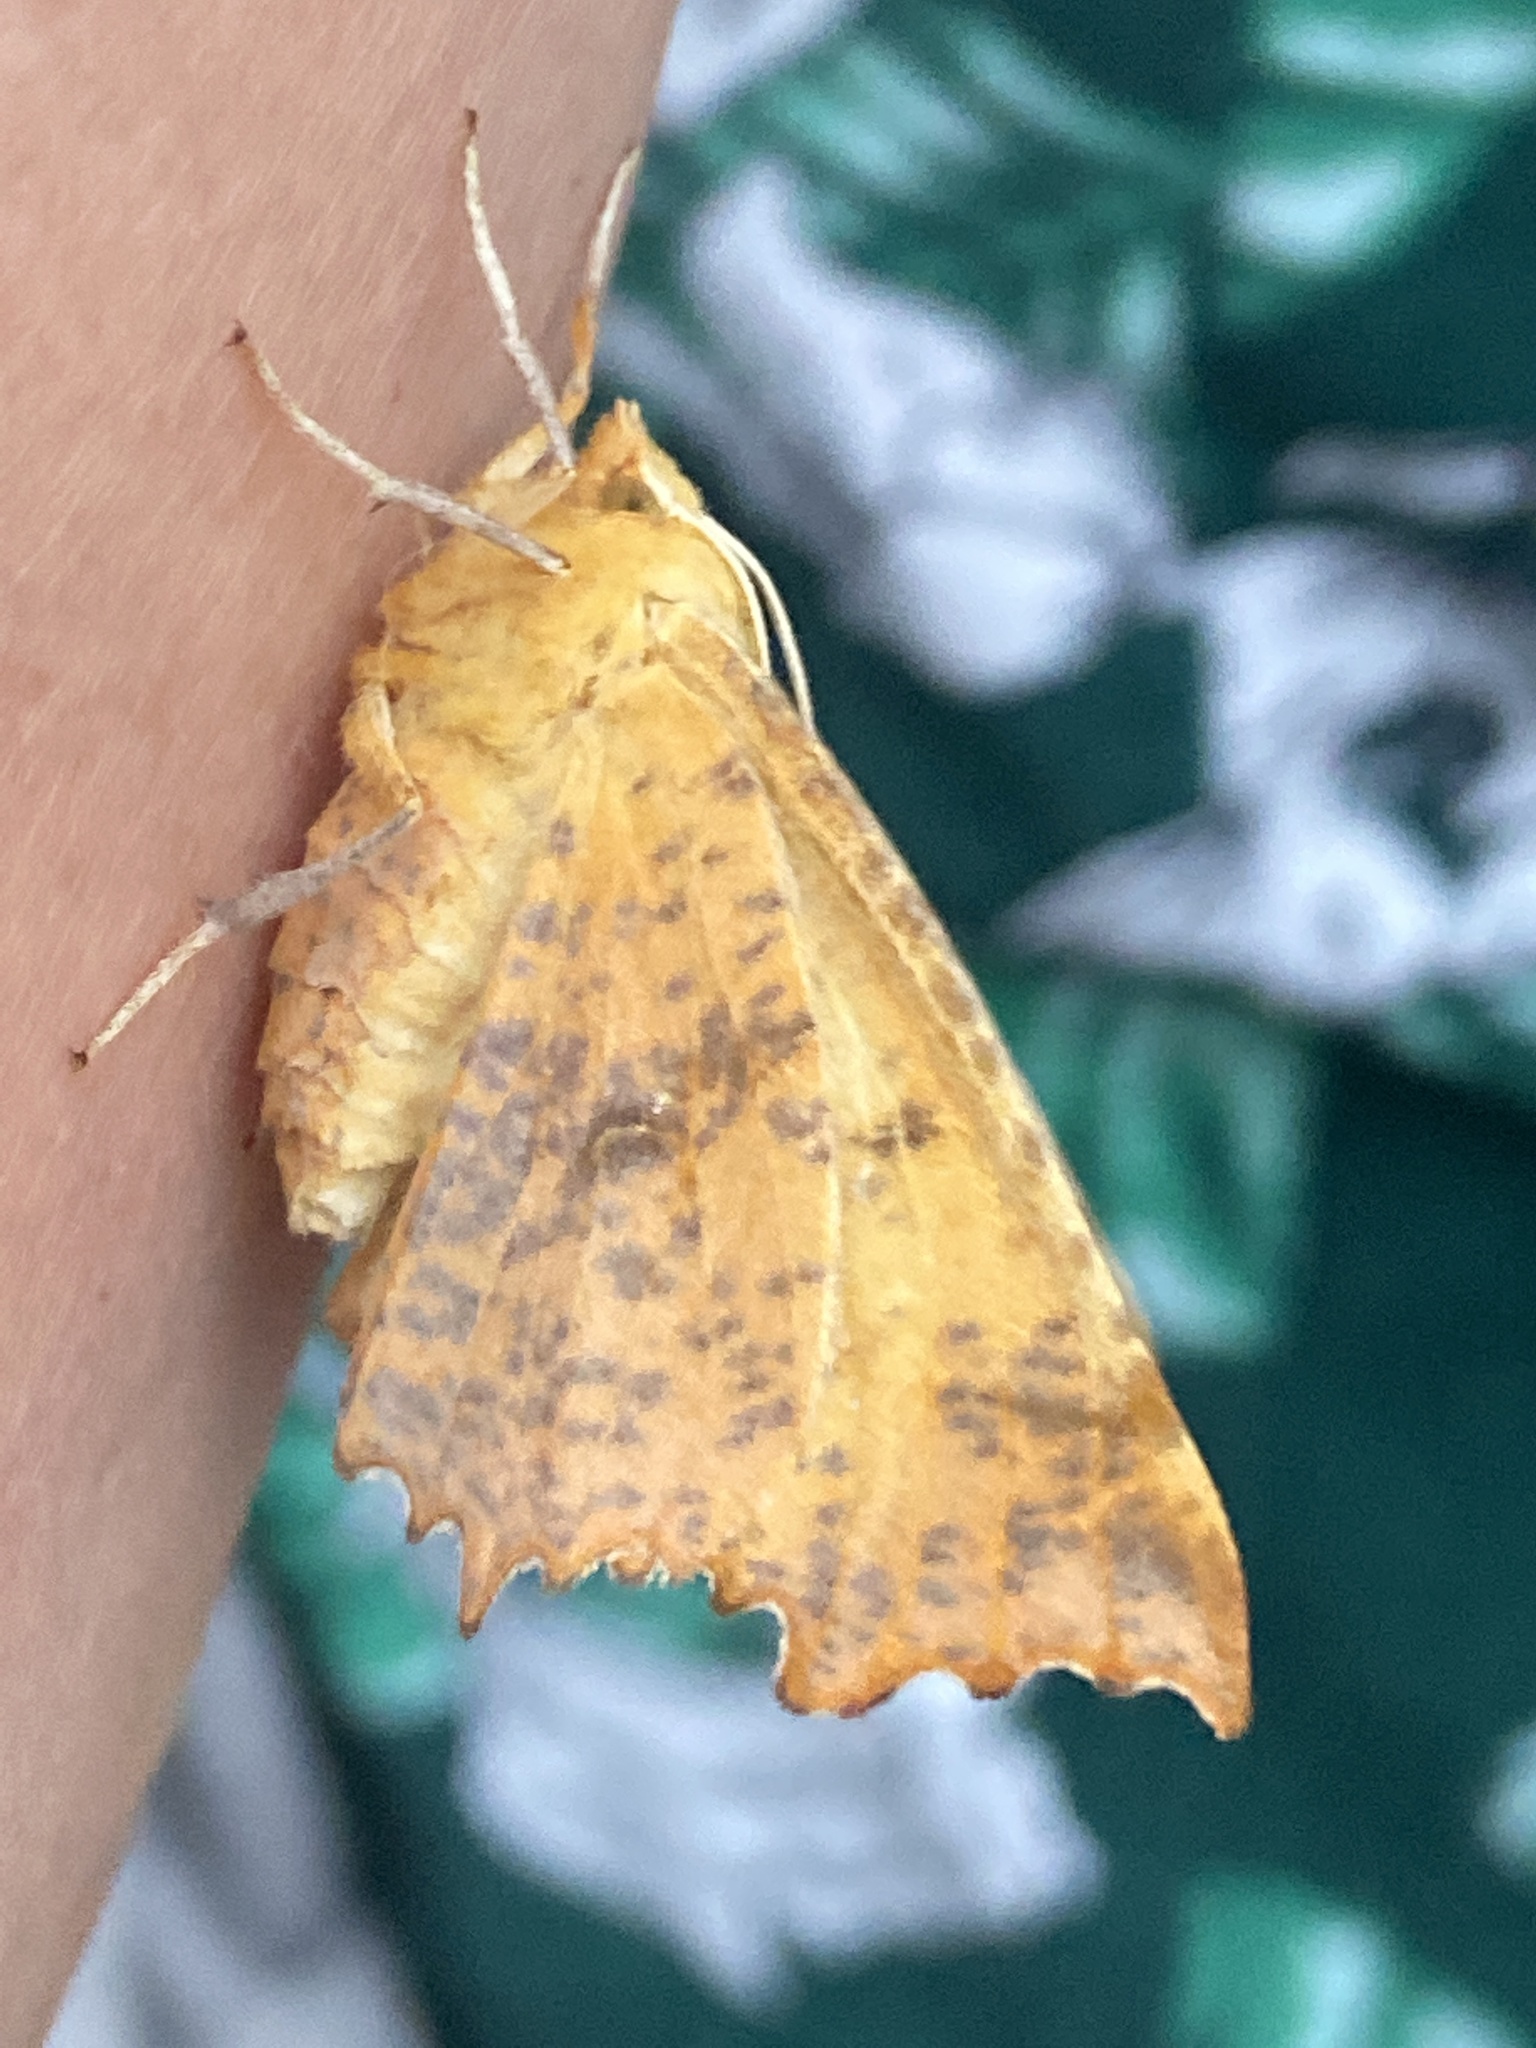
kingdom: Animalia
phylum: Arthropoda
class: Insecta
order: Lepidoptera
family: Geometridae
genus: Ennomos
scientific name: Ennomos autumnaria
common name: Large thorn
